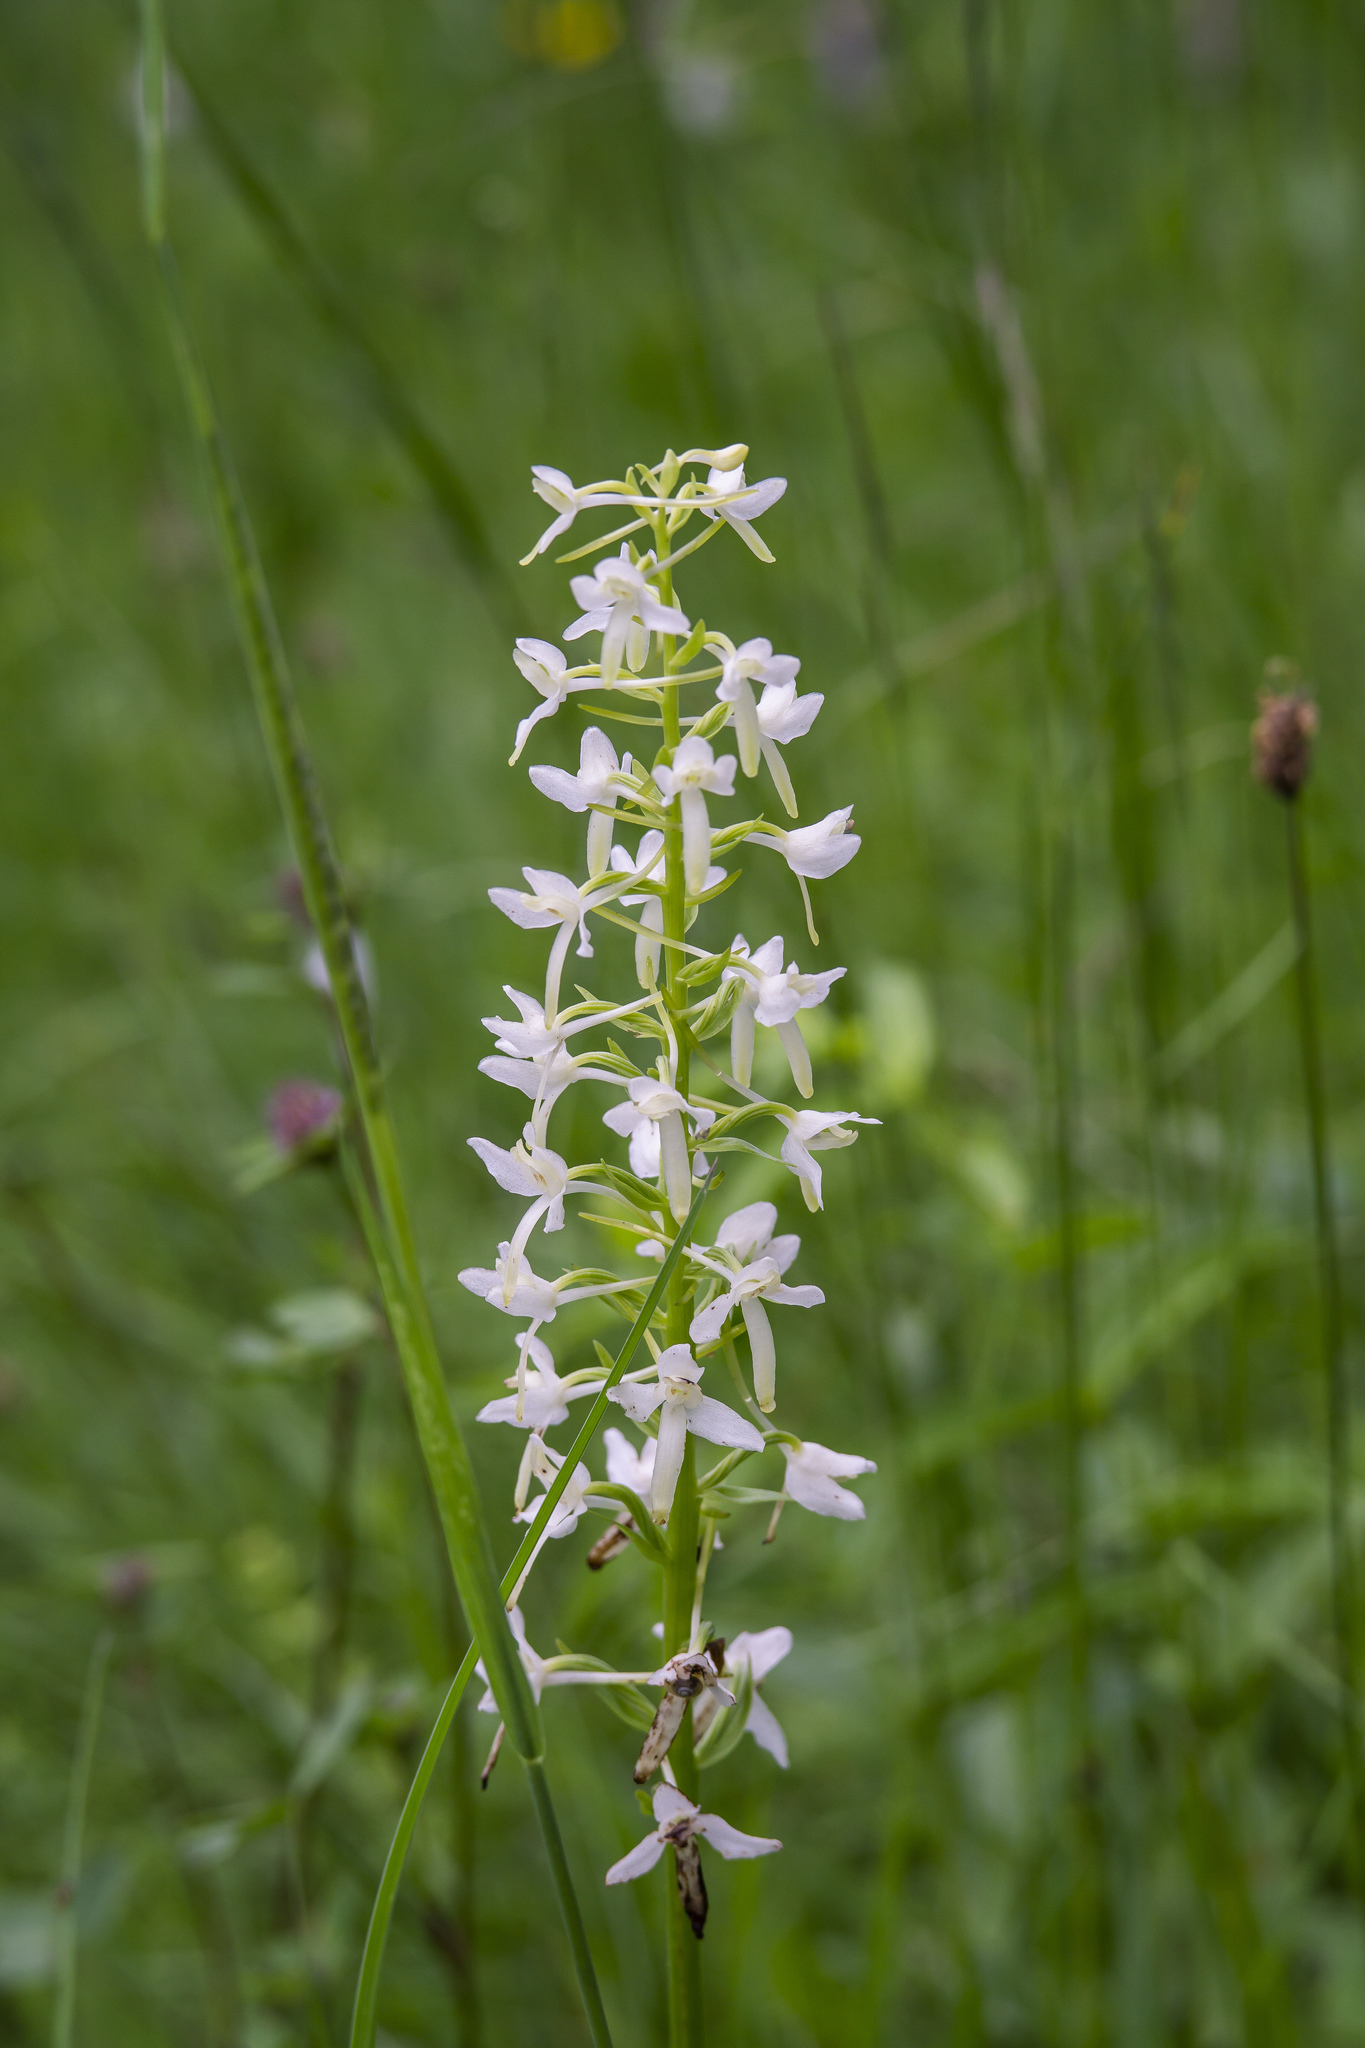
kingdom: Plantae
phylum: Tracheophyta
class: Liliopsida
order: Asparagales
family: Orchidaceae
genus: Platanthera
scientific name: Platanthera bifolia
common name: Lesser butterfly-orchid
